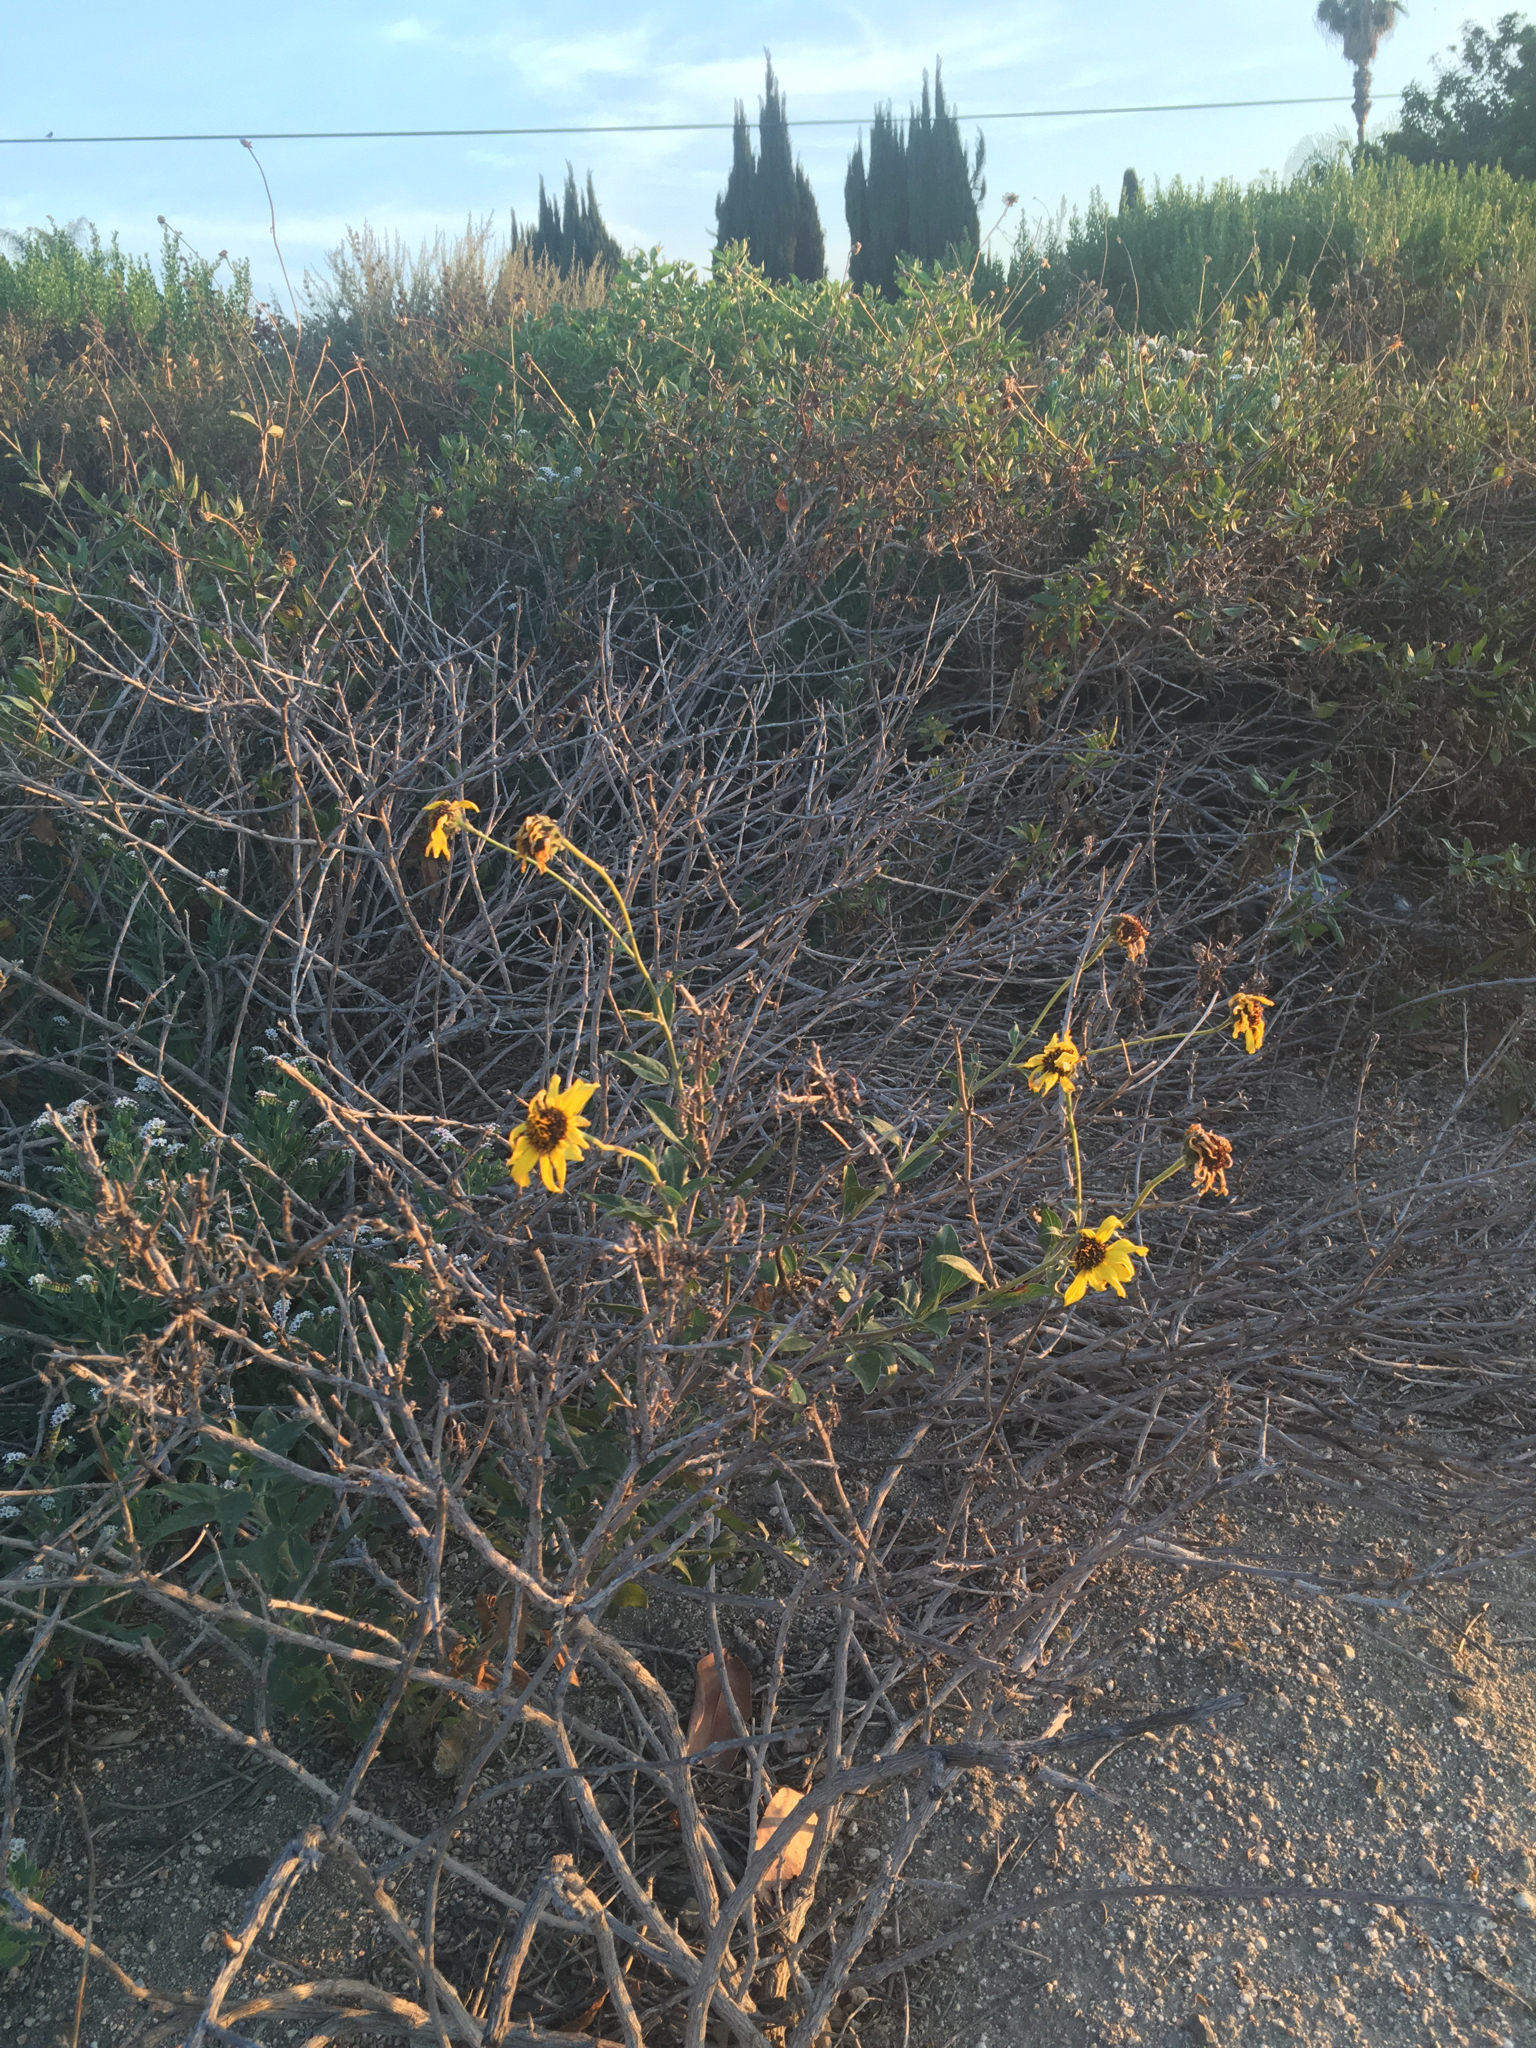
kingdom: Plantae
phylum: Tracheophyta
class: Magnoliopsida
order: Asterales
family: Asteraceae
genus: Encelia
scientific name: Encelia californica
